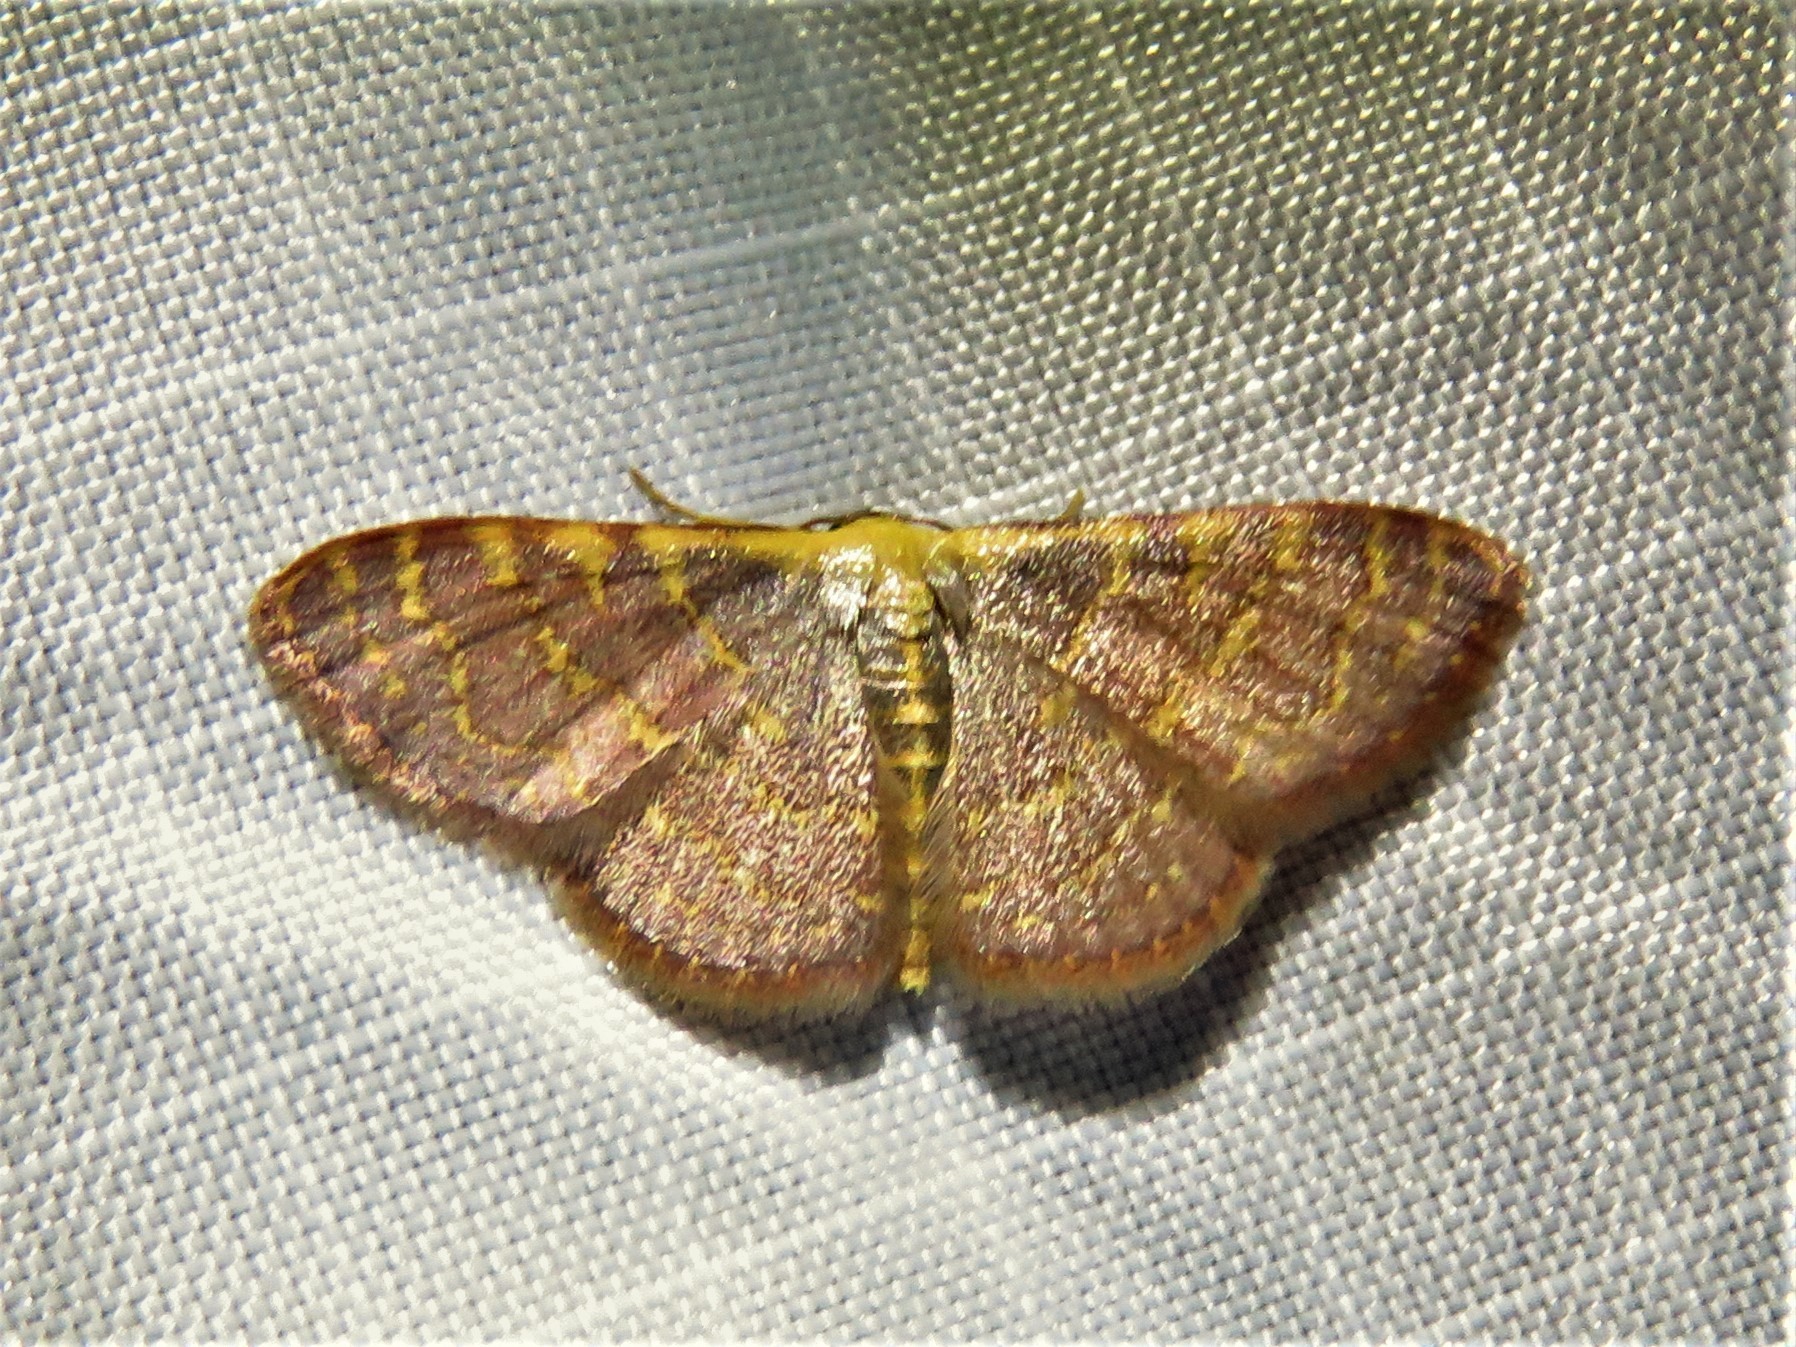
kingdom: Animalia
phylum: Arthropoda
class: Insecta
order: Lepidoptera
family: Geometridae
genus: Leptostales
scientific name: Leptostales pannaria
